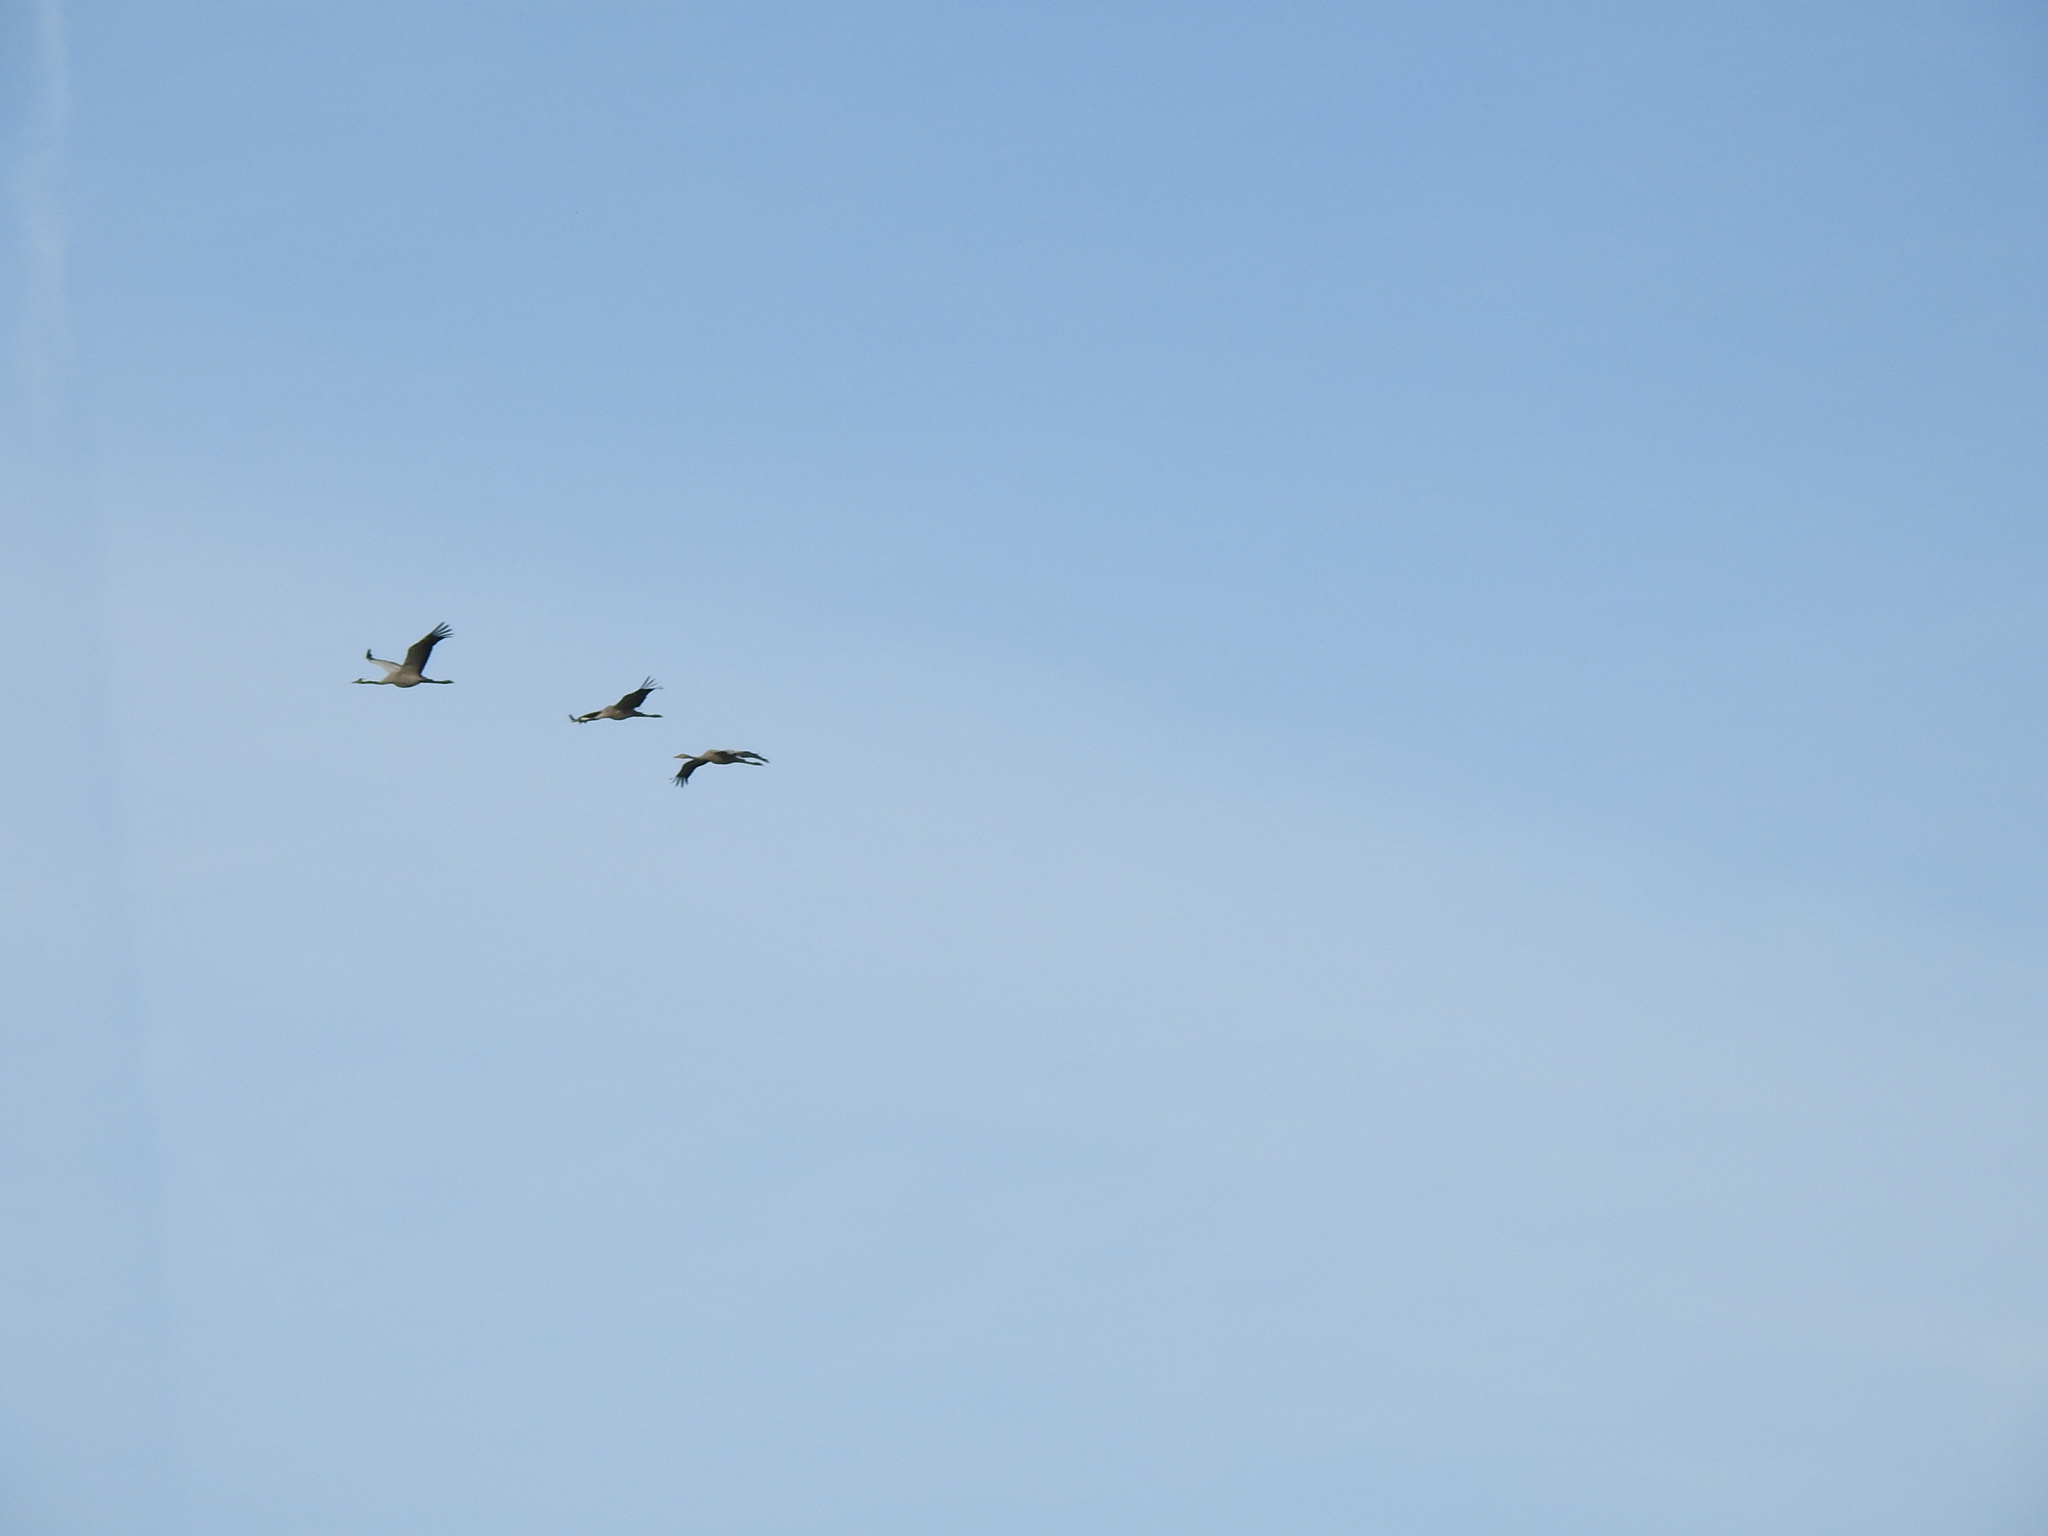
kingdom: Animalia
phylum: Chordata
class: Aves
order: Gruiformes
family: Gruidae
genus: Grus
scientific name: Grus grus
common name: Common crane
